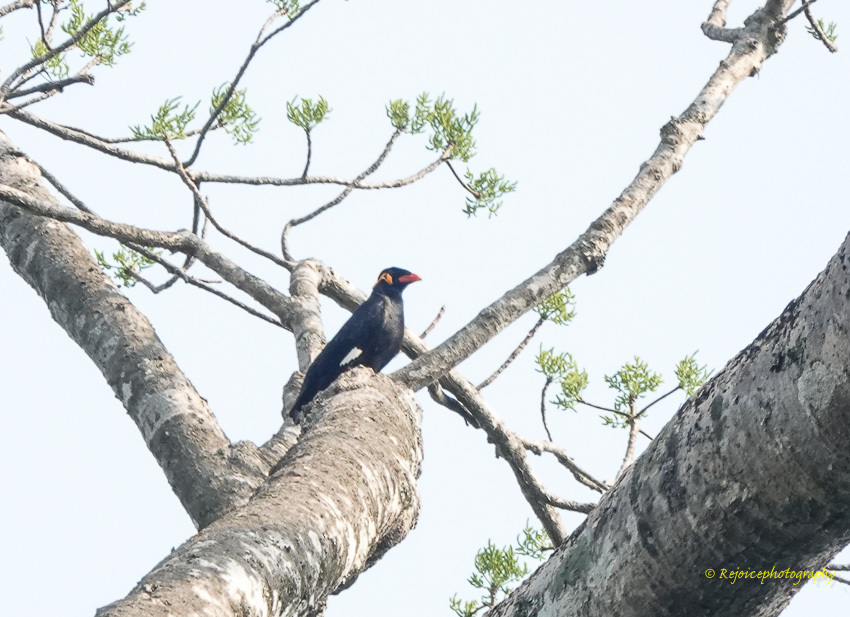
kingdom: Animalia
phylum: Chordata
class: Aves
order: Passeriformes
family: Sturnidae
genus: Gracula
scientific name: Gracula religiosa
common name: Common hill myna
